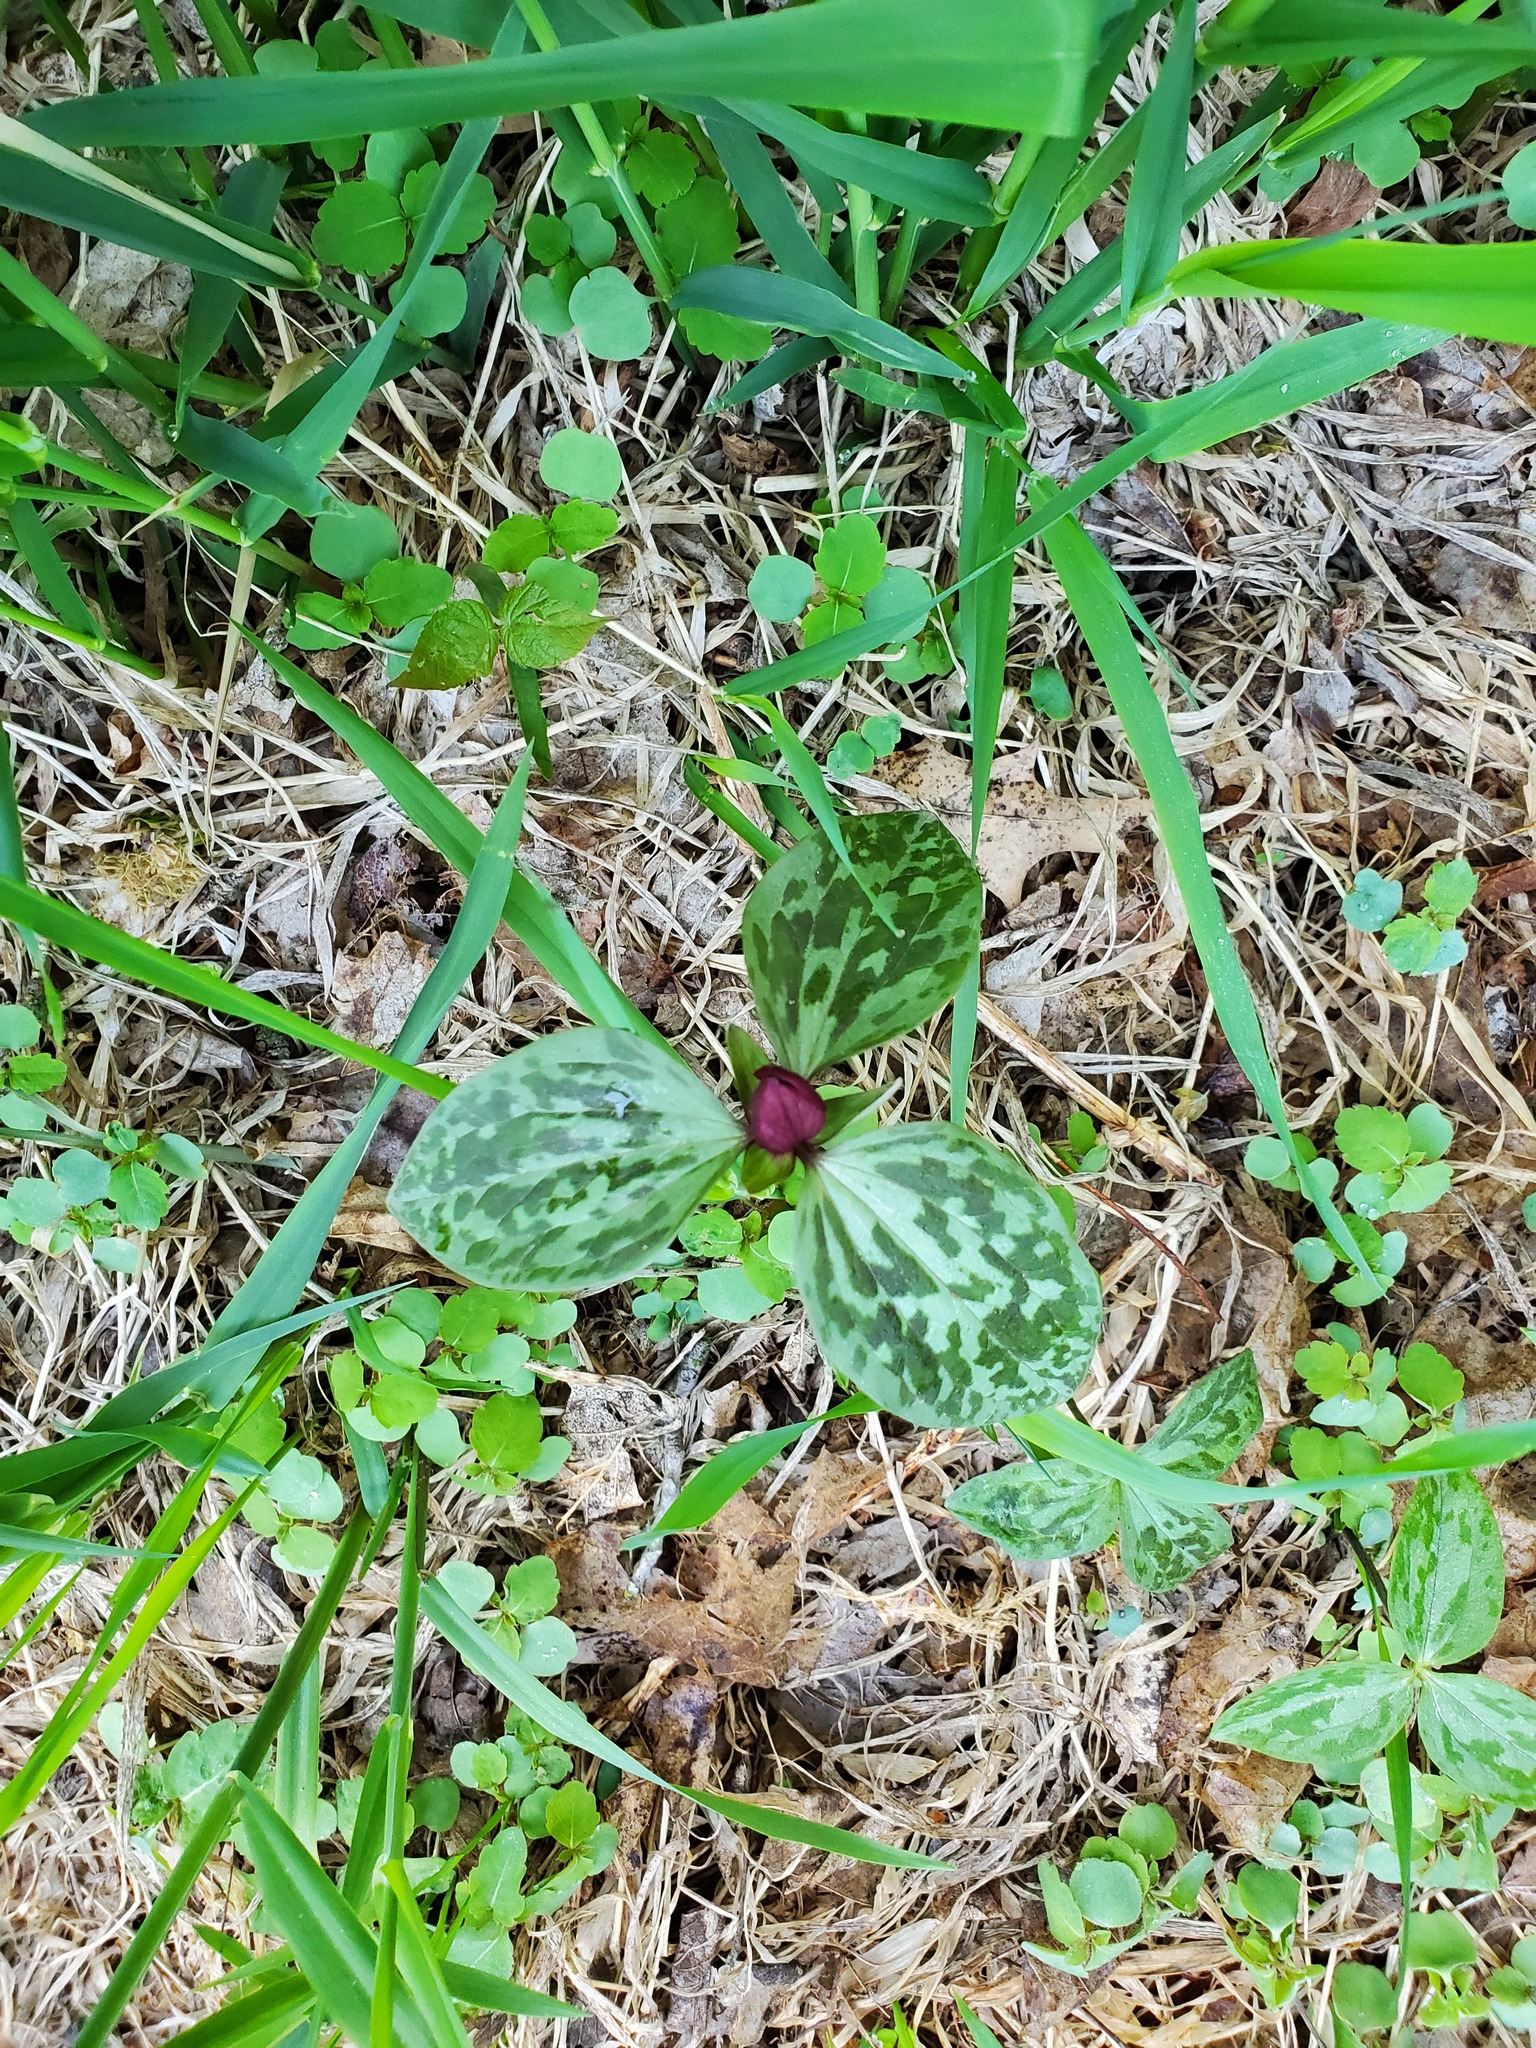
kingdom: Plantae
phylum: Tracheophyta
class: Liliopsida
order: Liliales
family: Melanthiaceae
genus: Trillium
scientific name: Trillium recurvatum
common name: Bloody butcher
